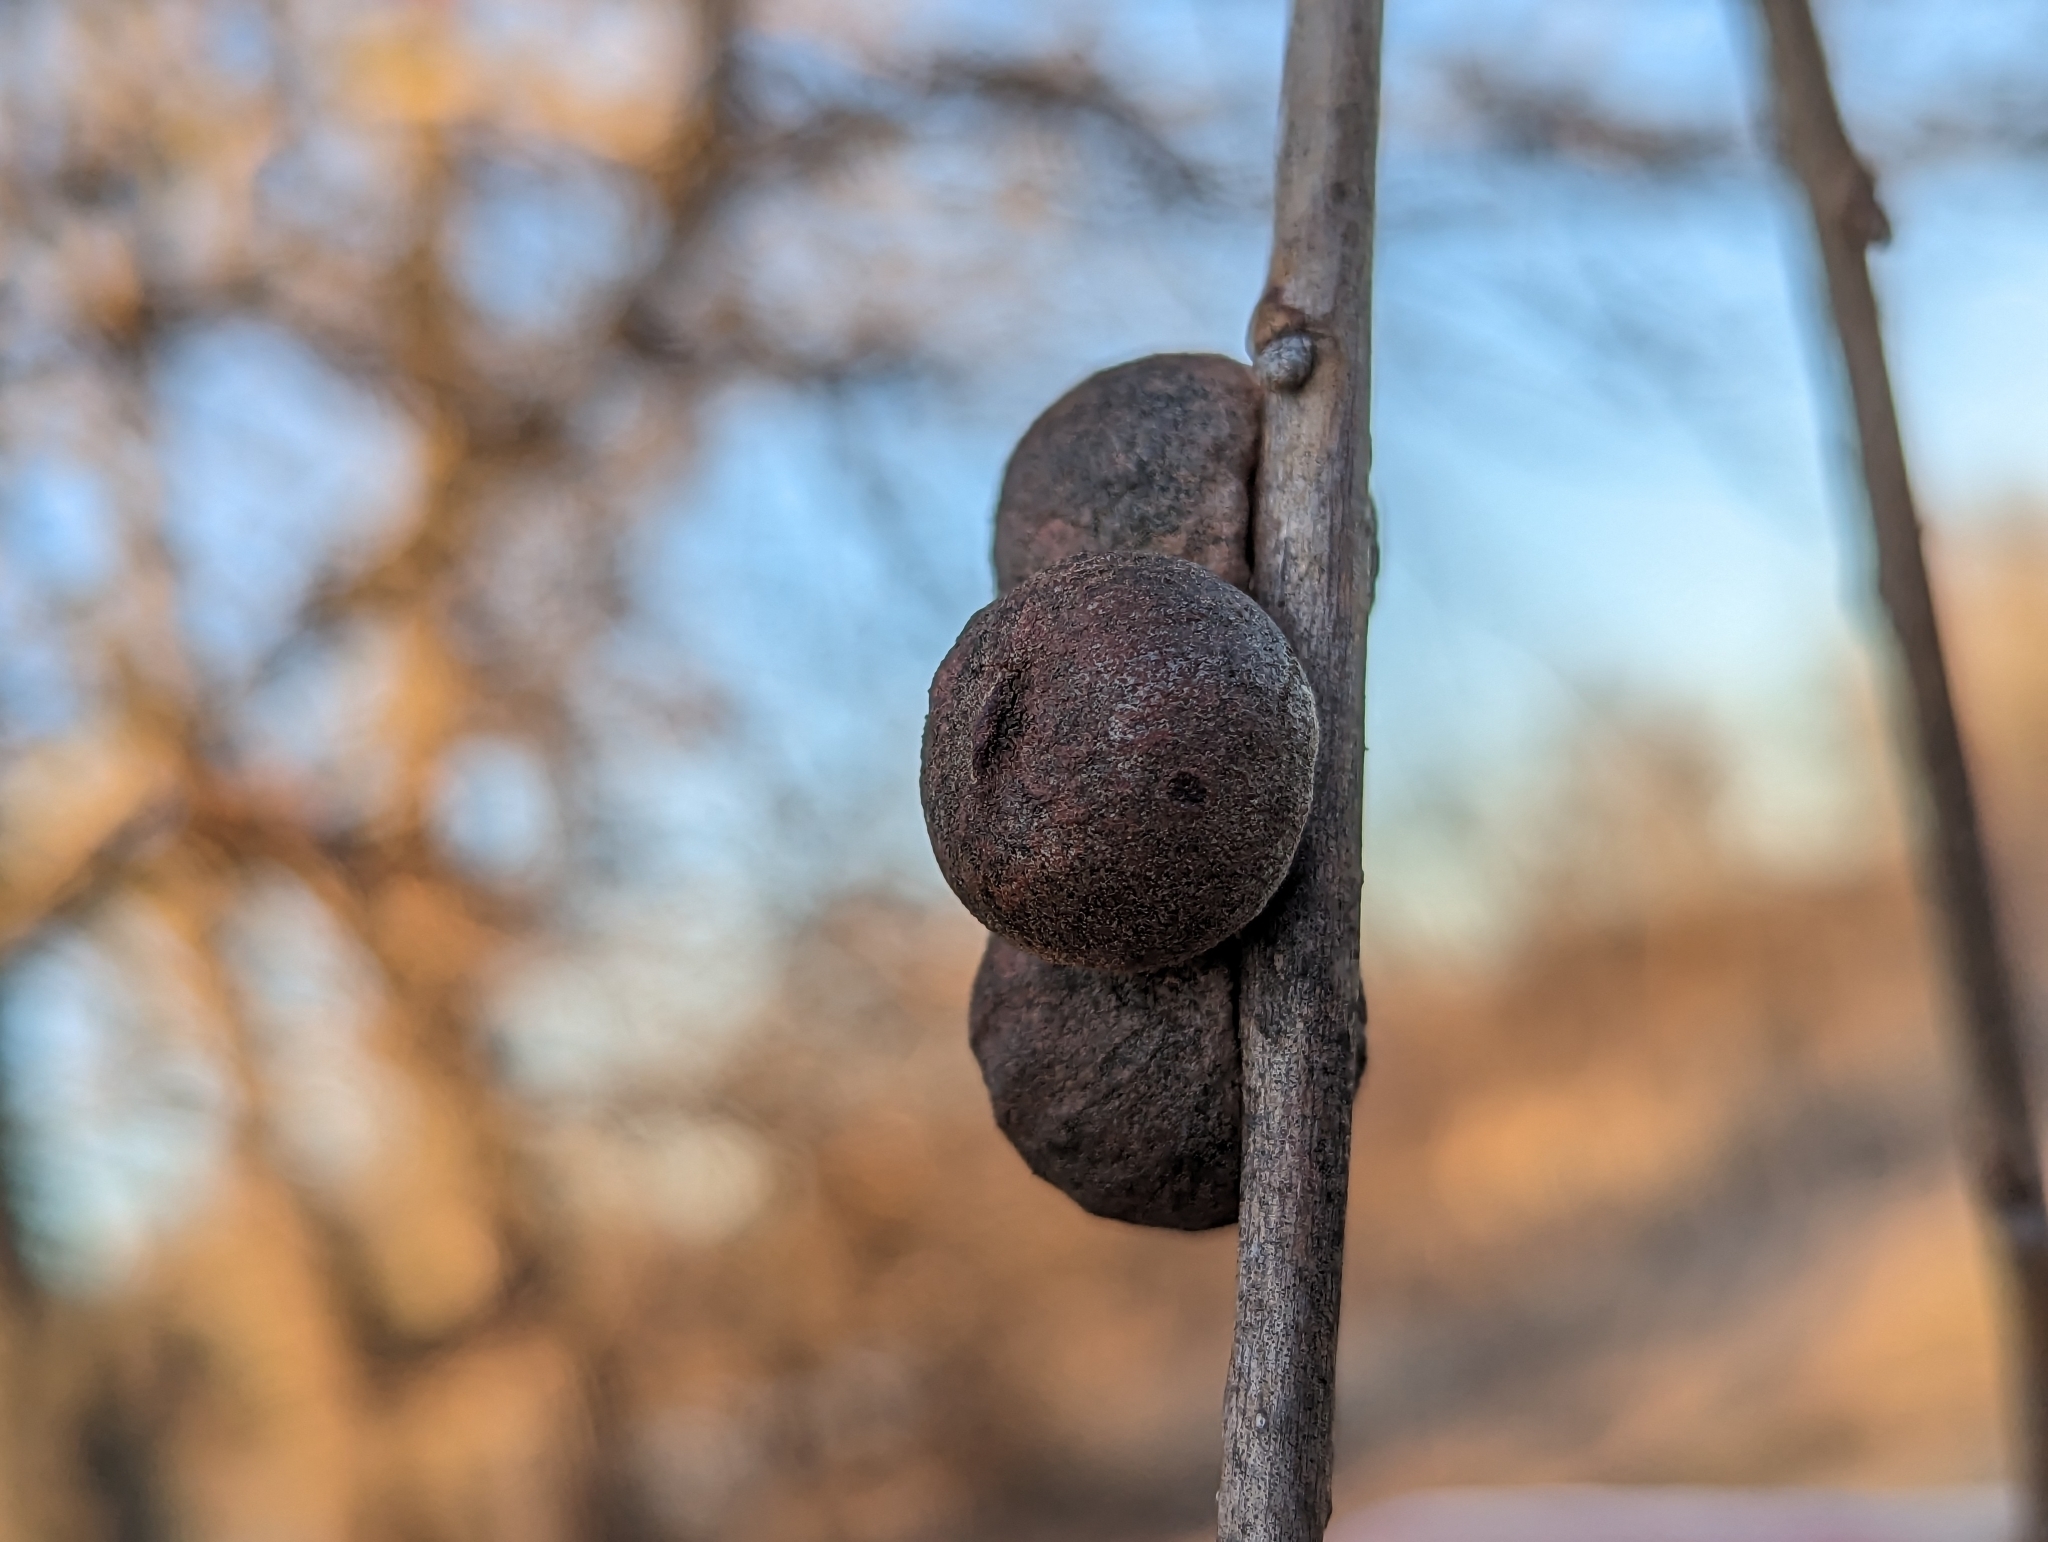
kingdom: Animalia
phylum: Arthropoda
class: Insecta
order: Hymenoptera
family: Cynipidae
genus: Disholcaspis
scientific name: Disholcaspis
